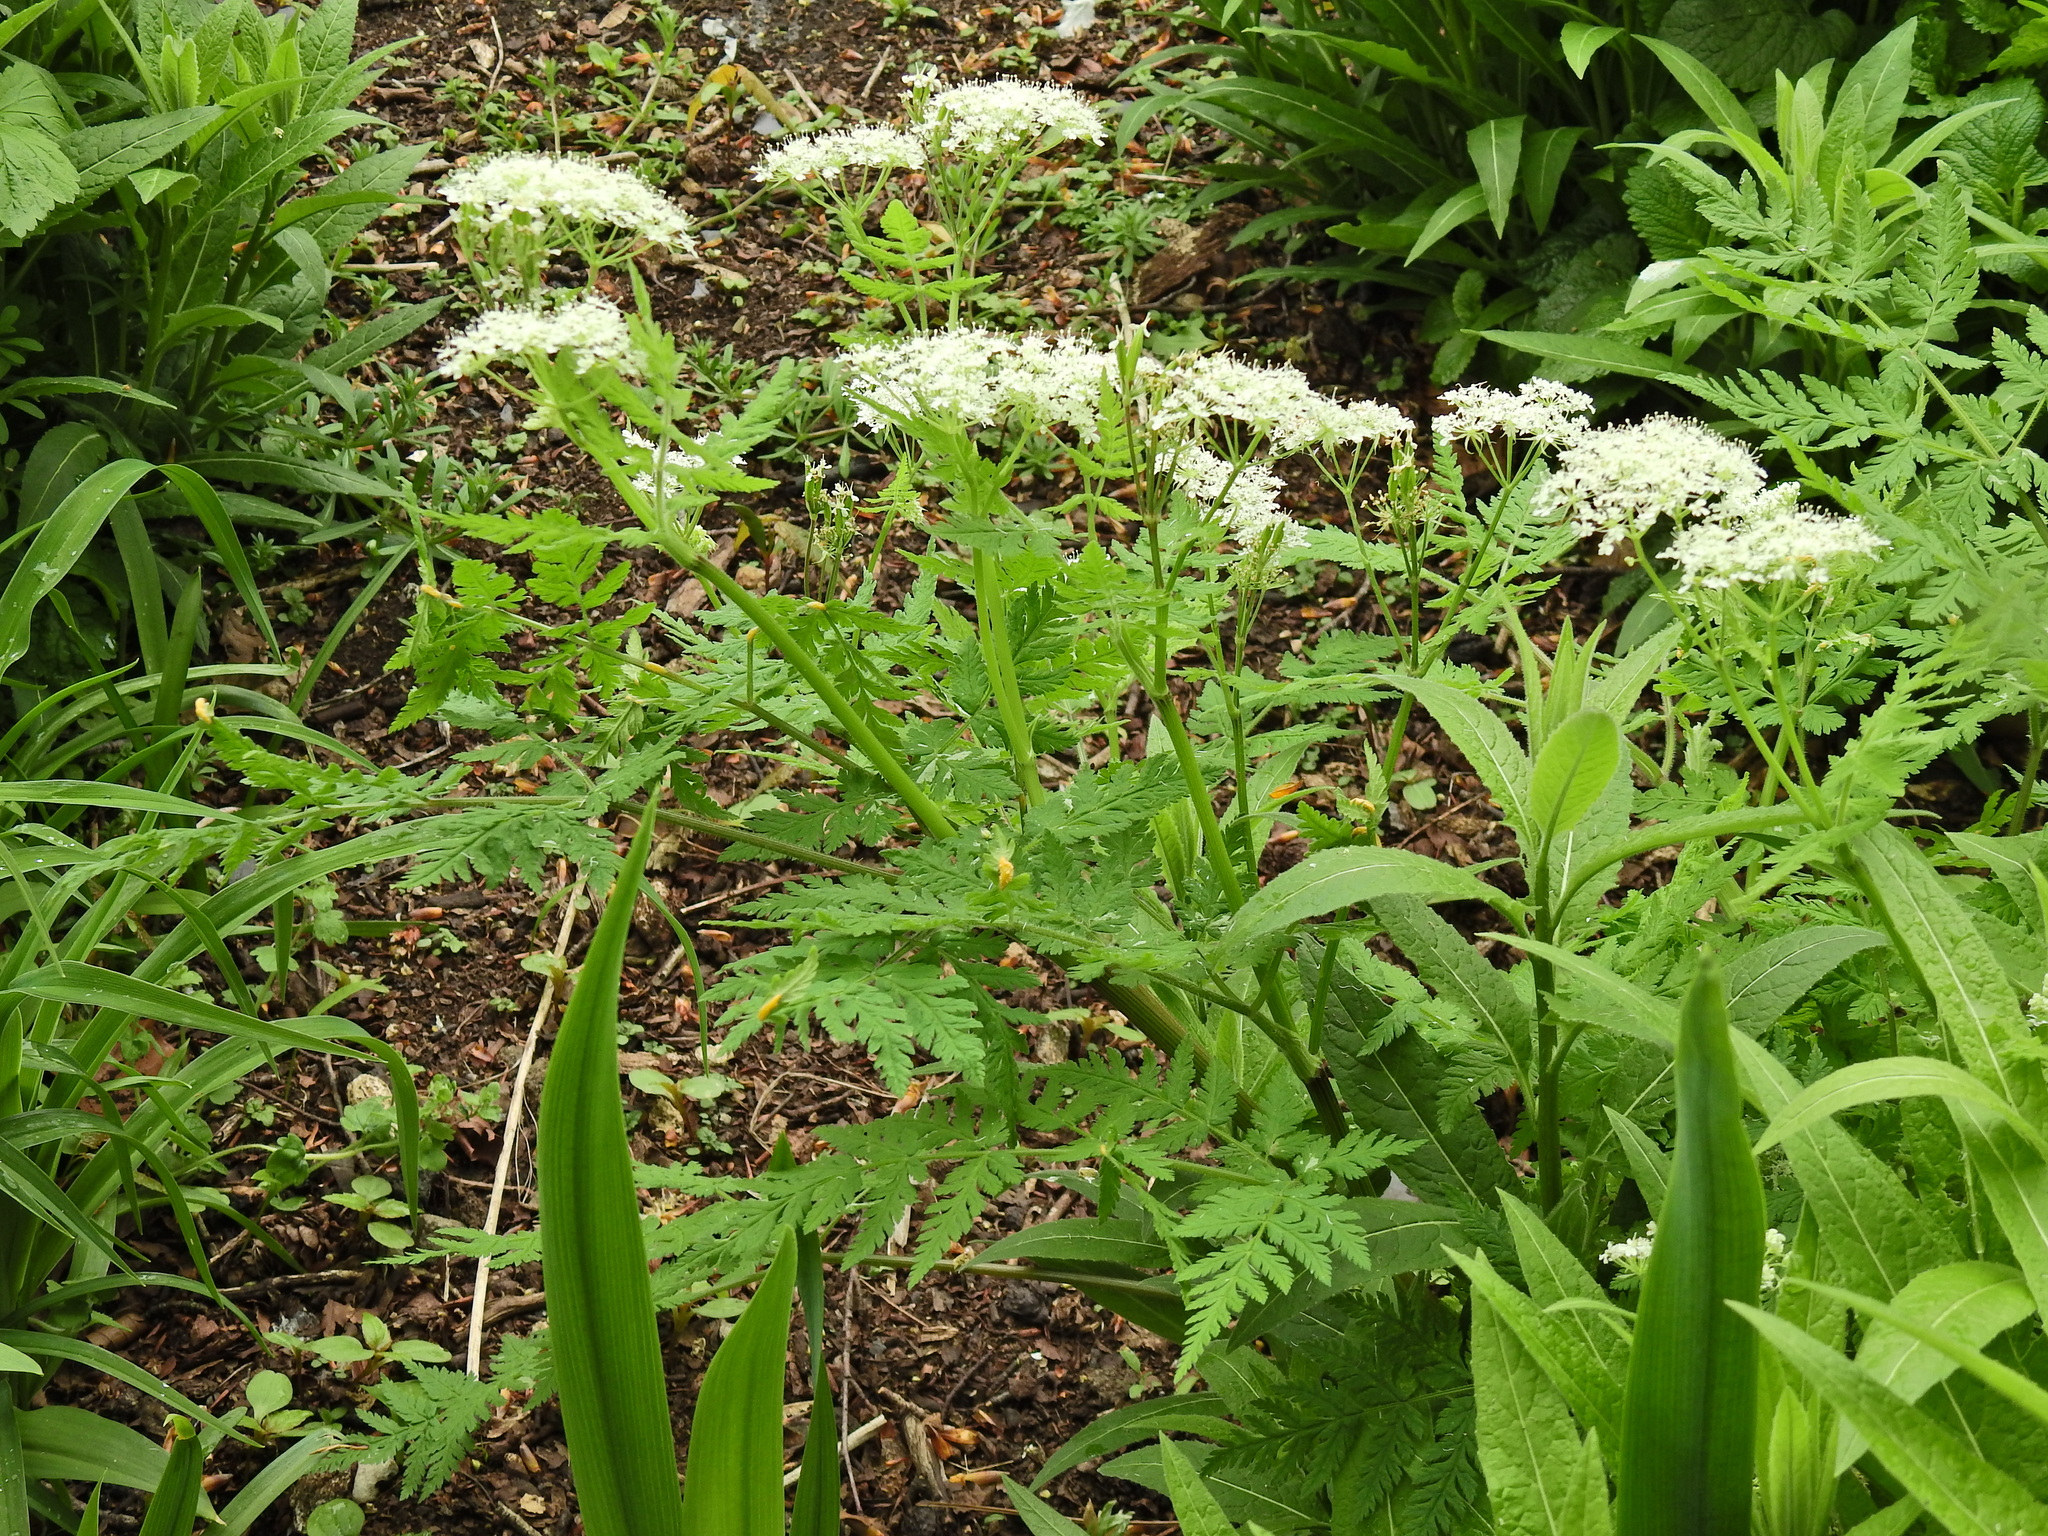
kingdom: Plantae
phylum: Tracheophyta
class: Magnoliopsida
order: Apiales
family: Apiaceae
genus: Myrrhis
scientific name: Myrrhis odorata
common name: Sweet cicely
